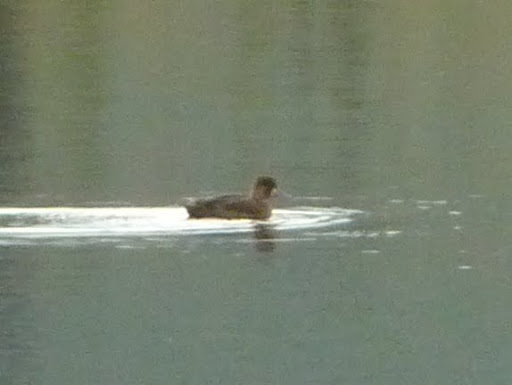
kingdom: Animalia
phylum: Chordata
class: Aves
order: Anseriformes
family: Anatidae
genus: Aythya
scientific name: Aythya affinis
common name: Lesser scaup
